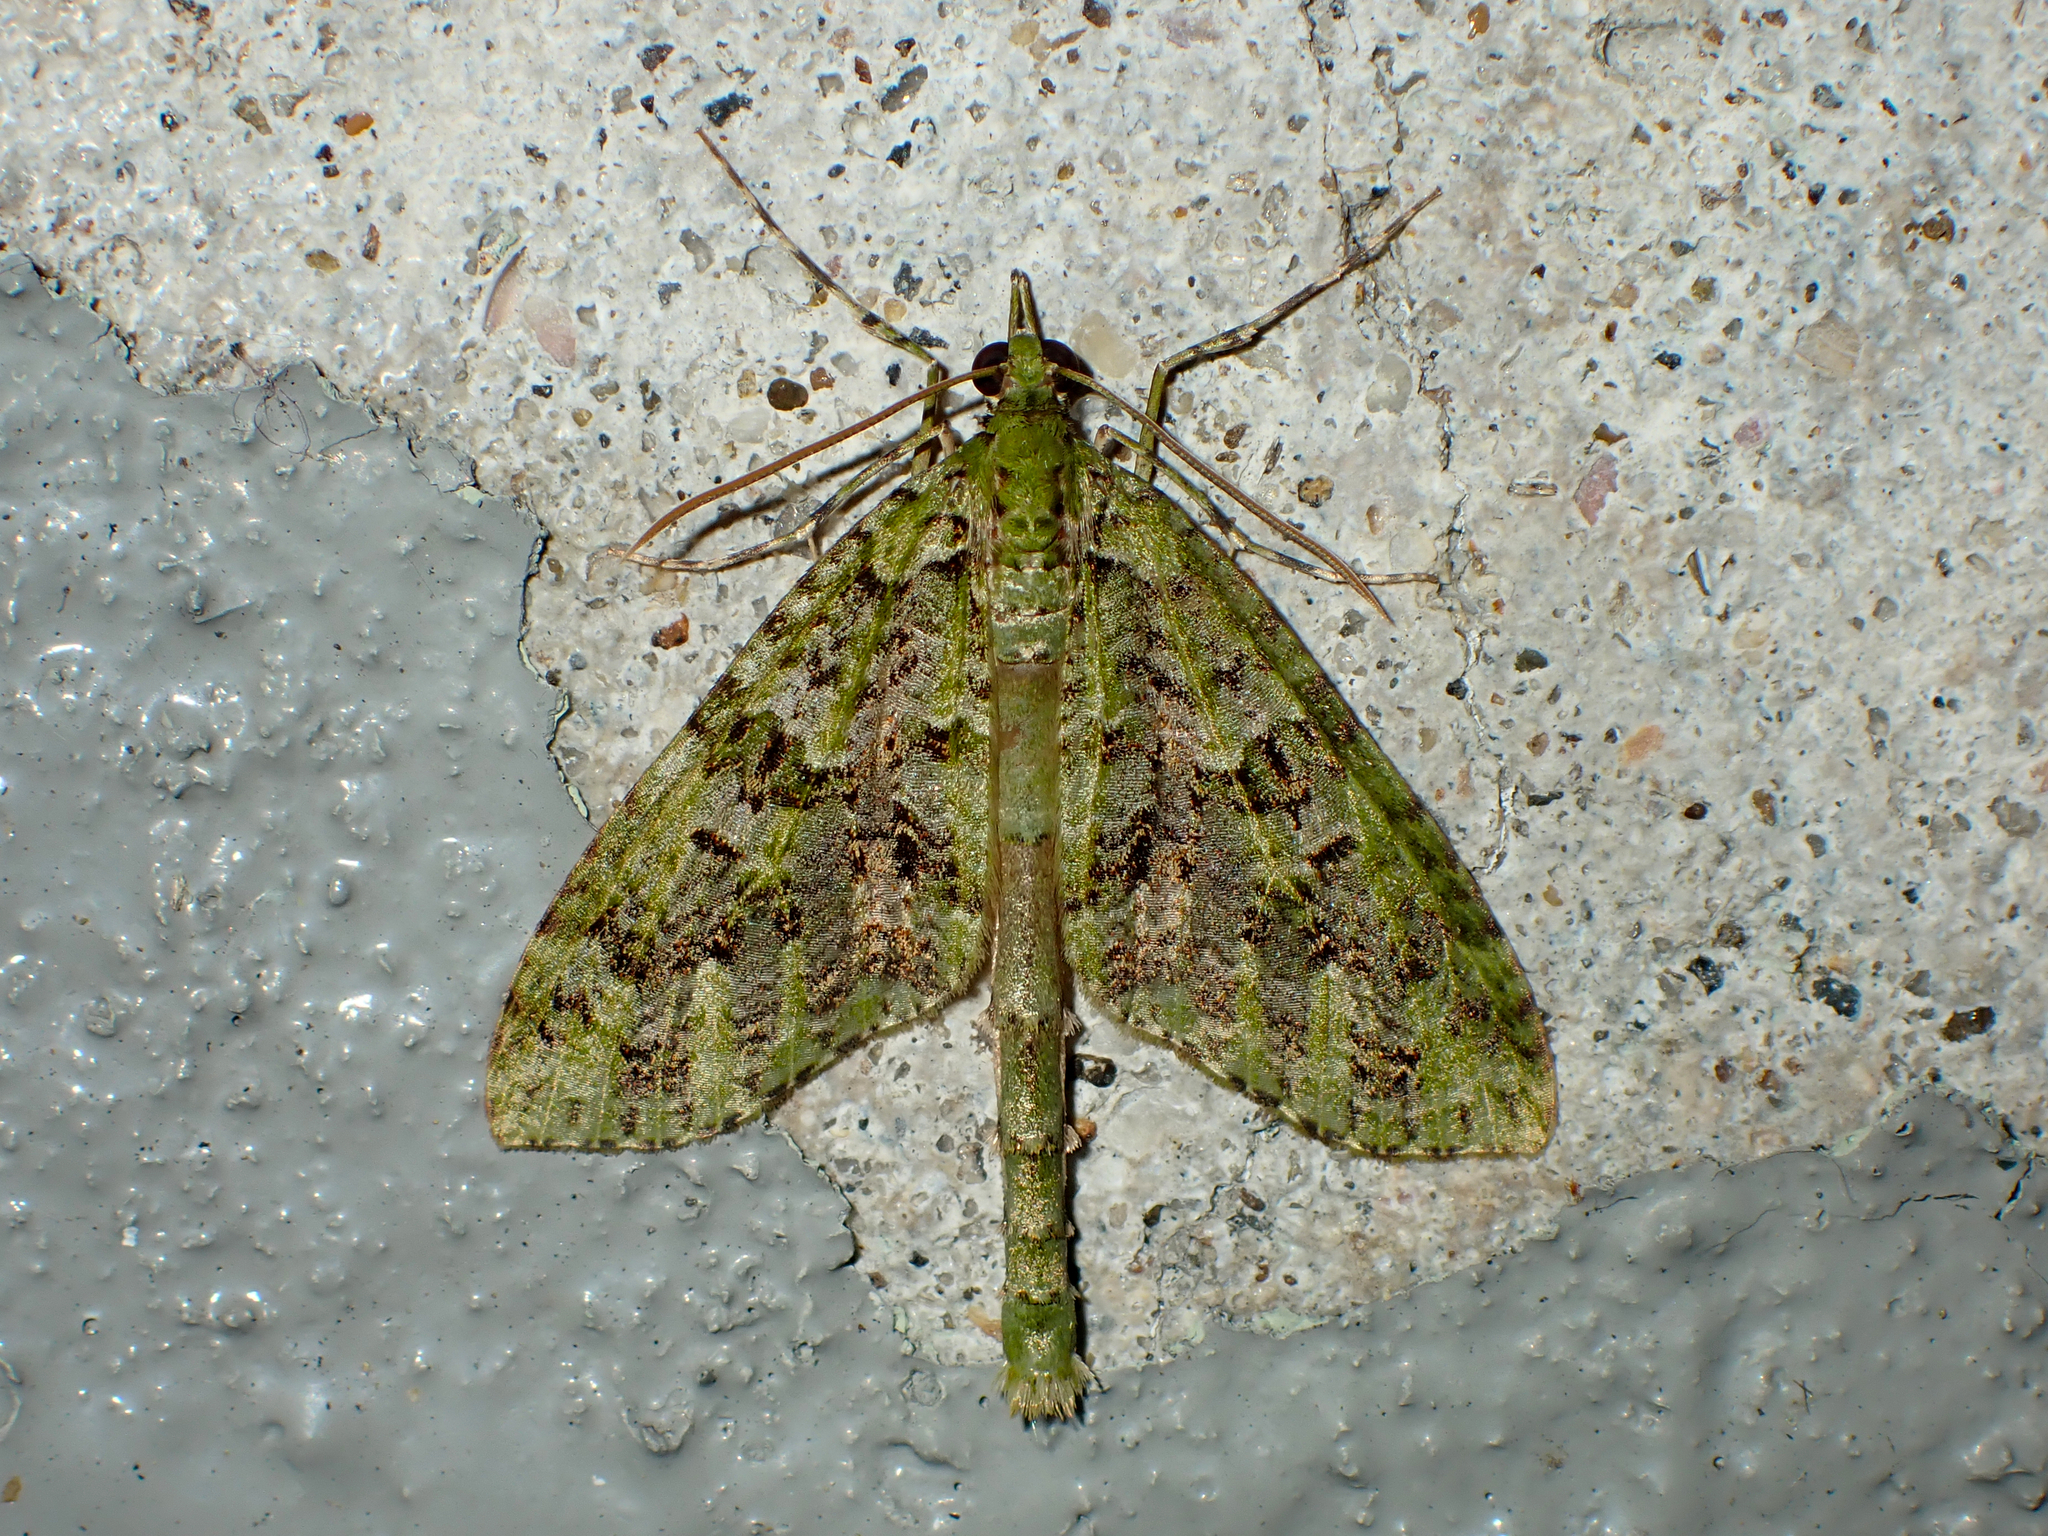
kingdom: Animalia
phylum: Arthropoda
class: Insecta
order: Lepidoptera
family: Geometridae
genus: Tatosoma
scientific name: Tatosoma tipulata
